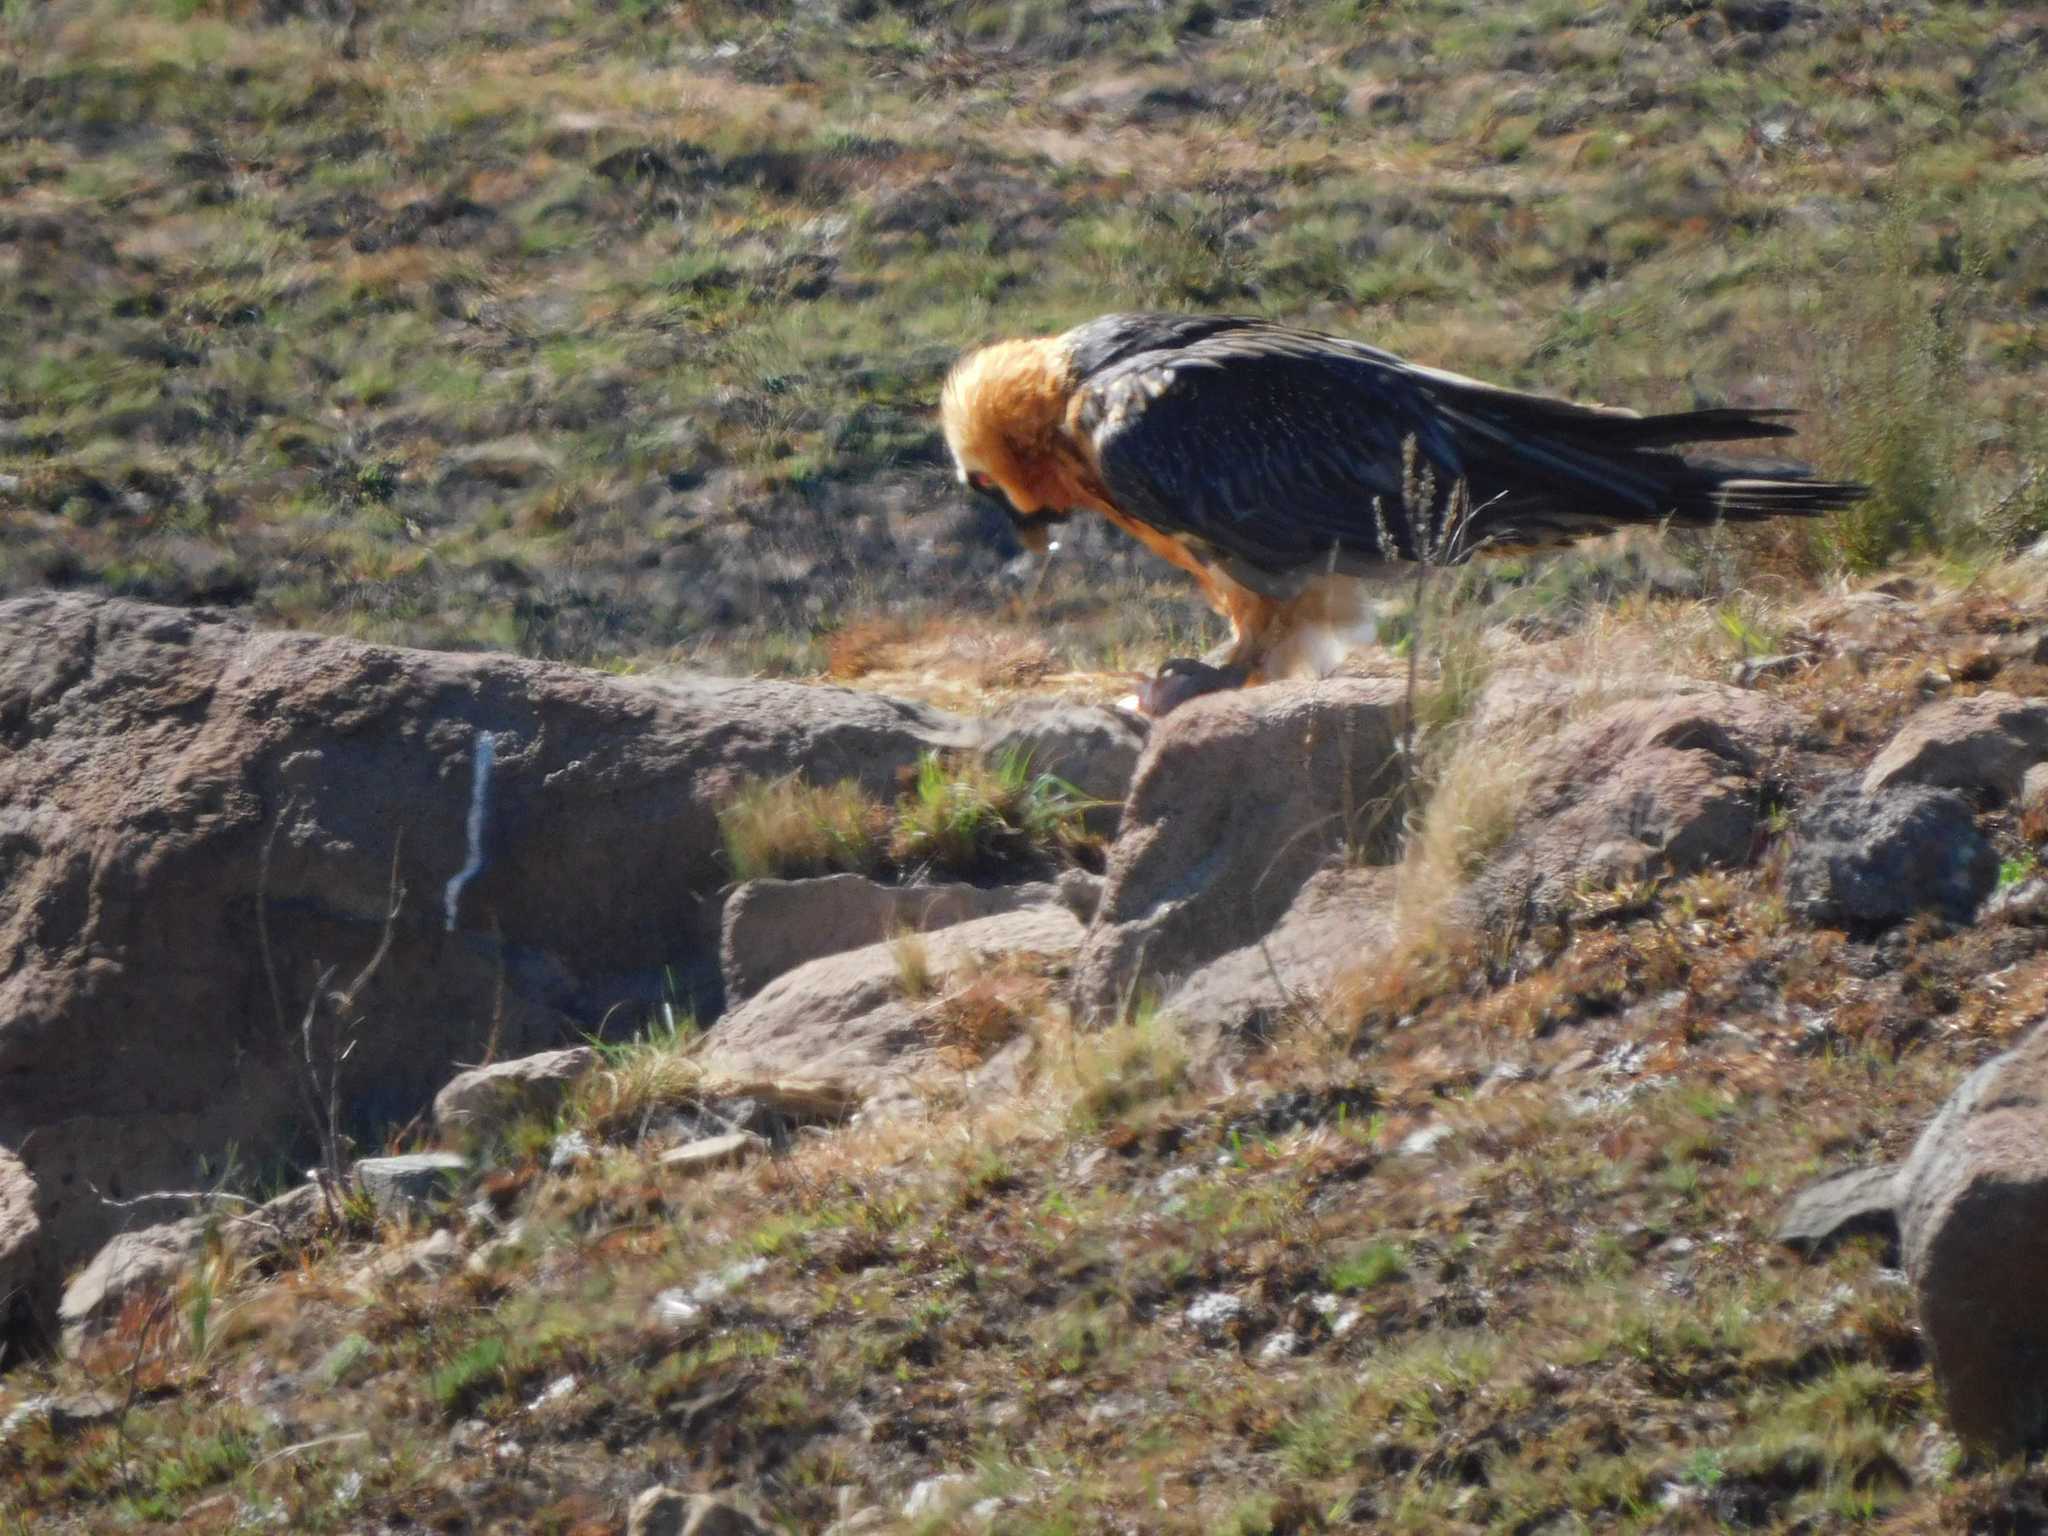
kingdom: Animalia
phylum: Chordata
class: Aves
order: Accipitriformes
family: Accipitridae
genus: Gypaetus
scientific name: Gypaetus barbatus
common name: Bearded vulture
